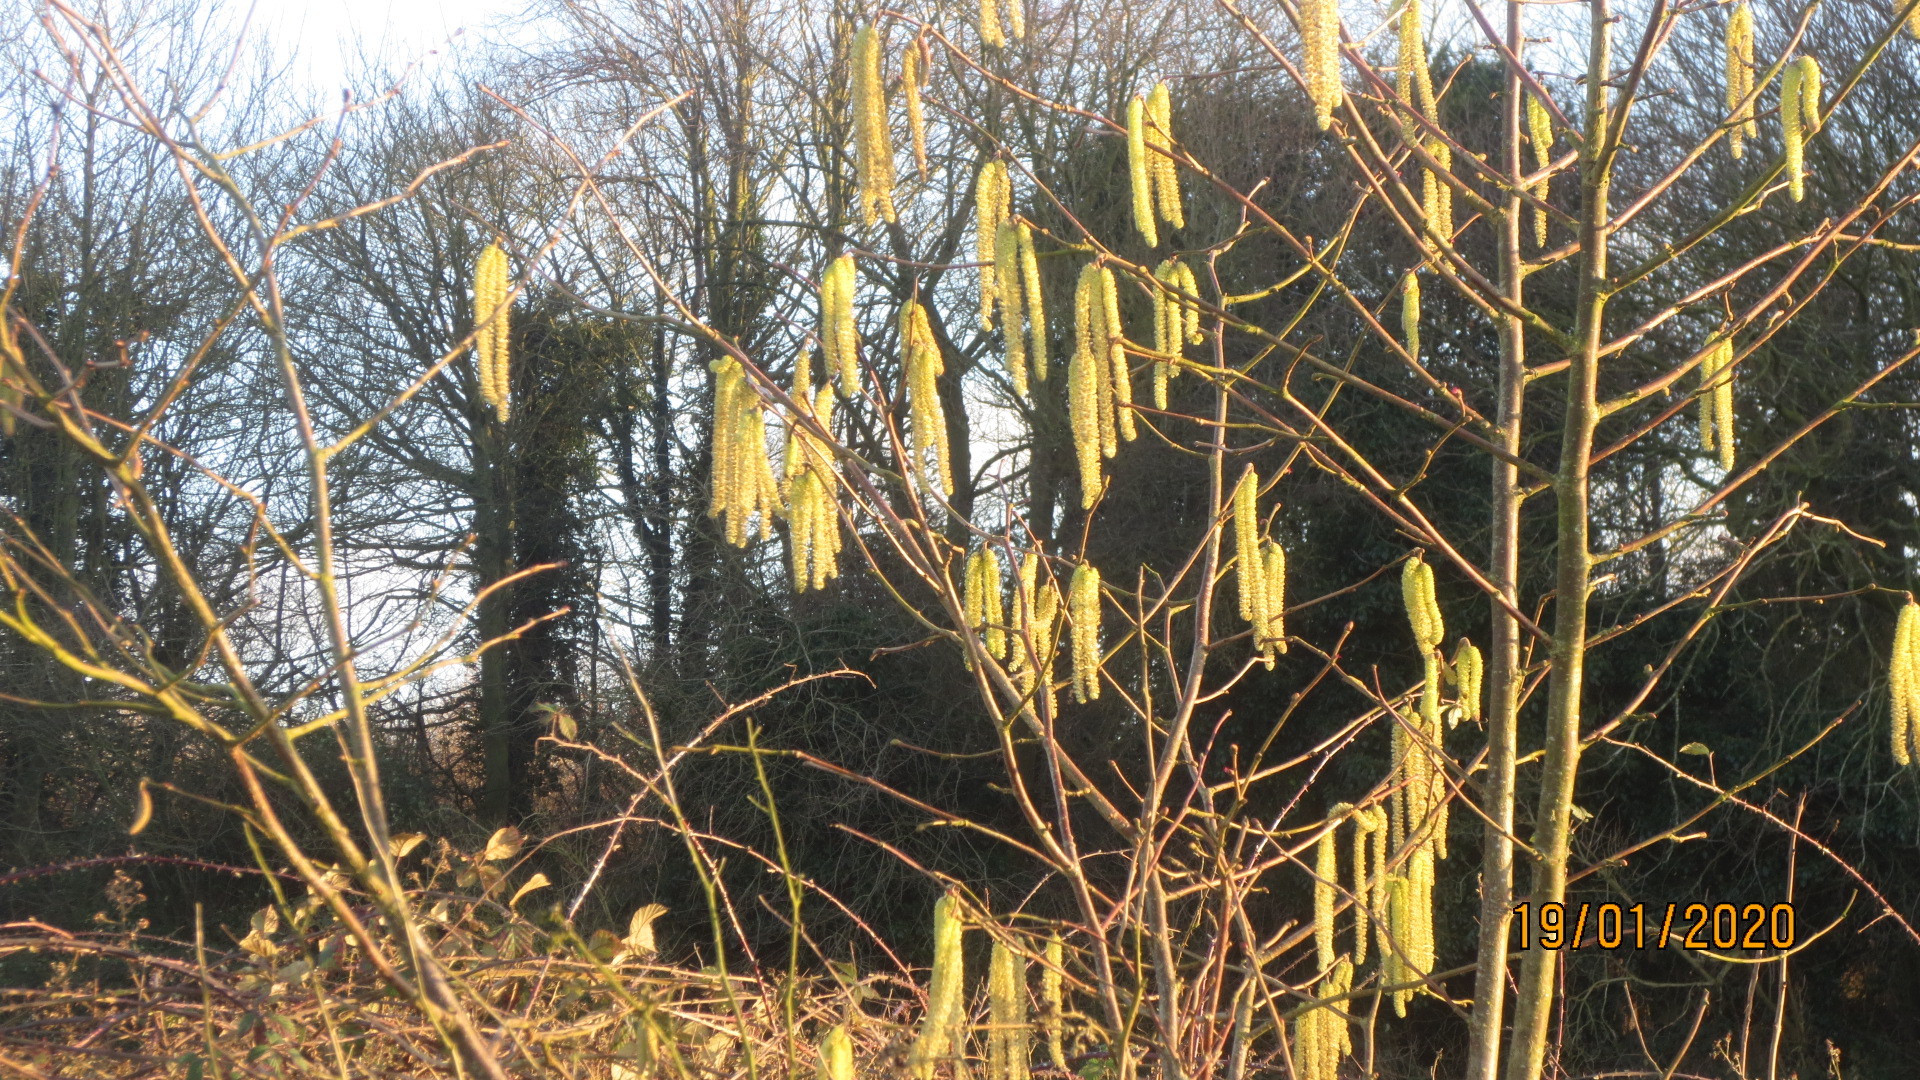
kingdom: Plantae
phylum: Tracheophyta
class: Magnoliopsida
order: Fagales
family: Betulaceae
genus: Corylus
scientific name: Corylus avellana
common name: European hazel
